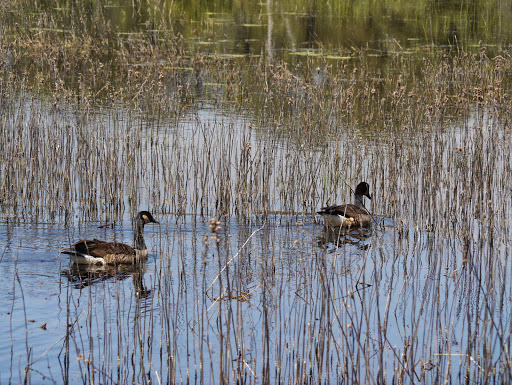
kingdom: Animalia
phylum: Chordata
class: Aves
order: Anseriformes
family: Anatidae
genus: Branta
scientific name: Branta canadensis
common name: Canada goose
